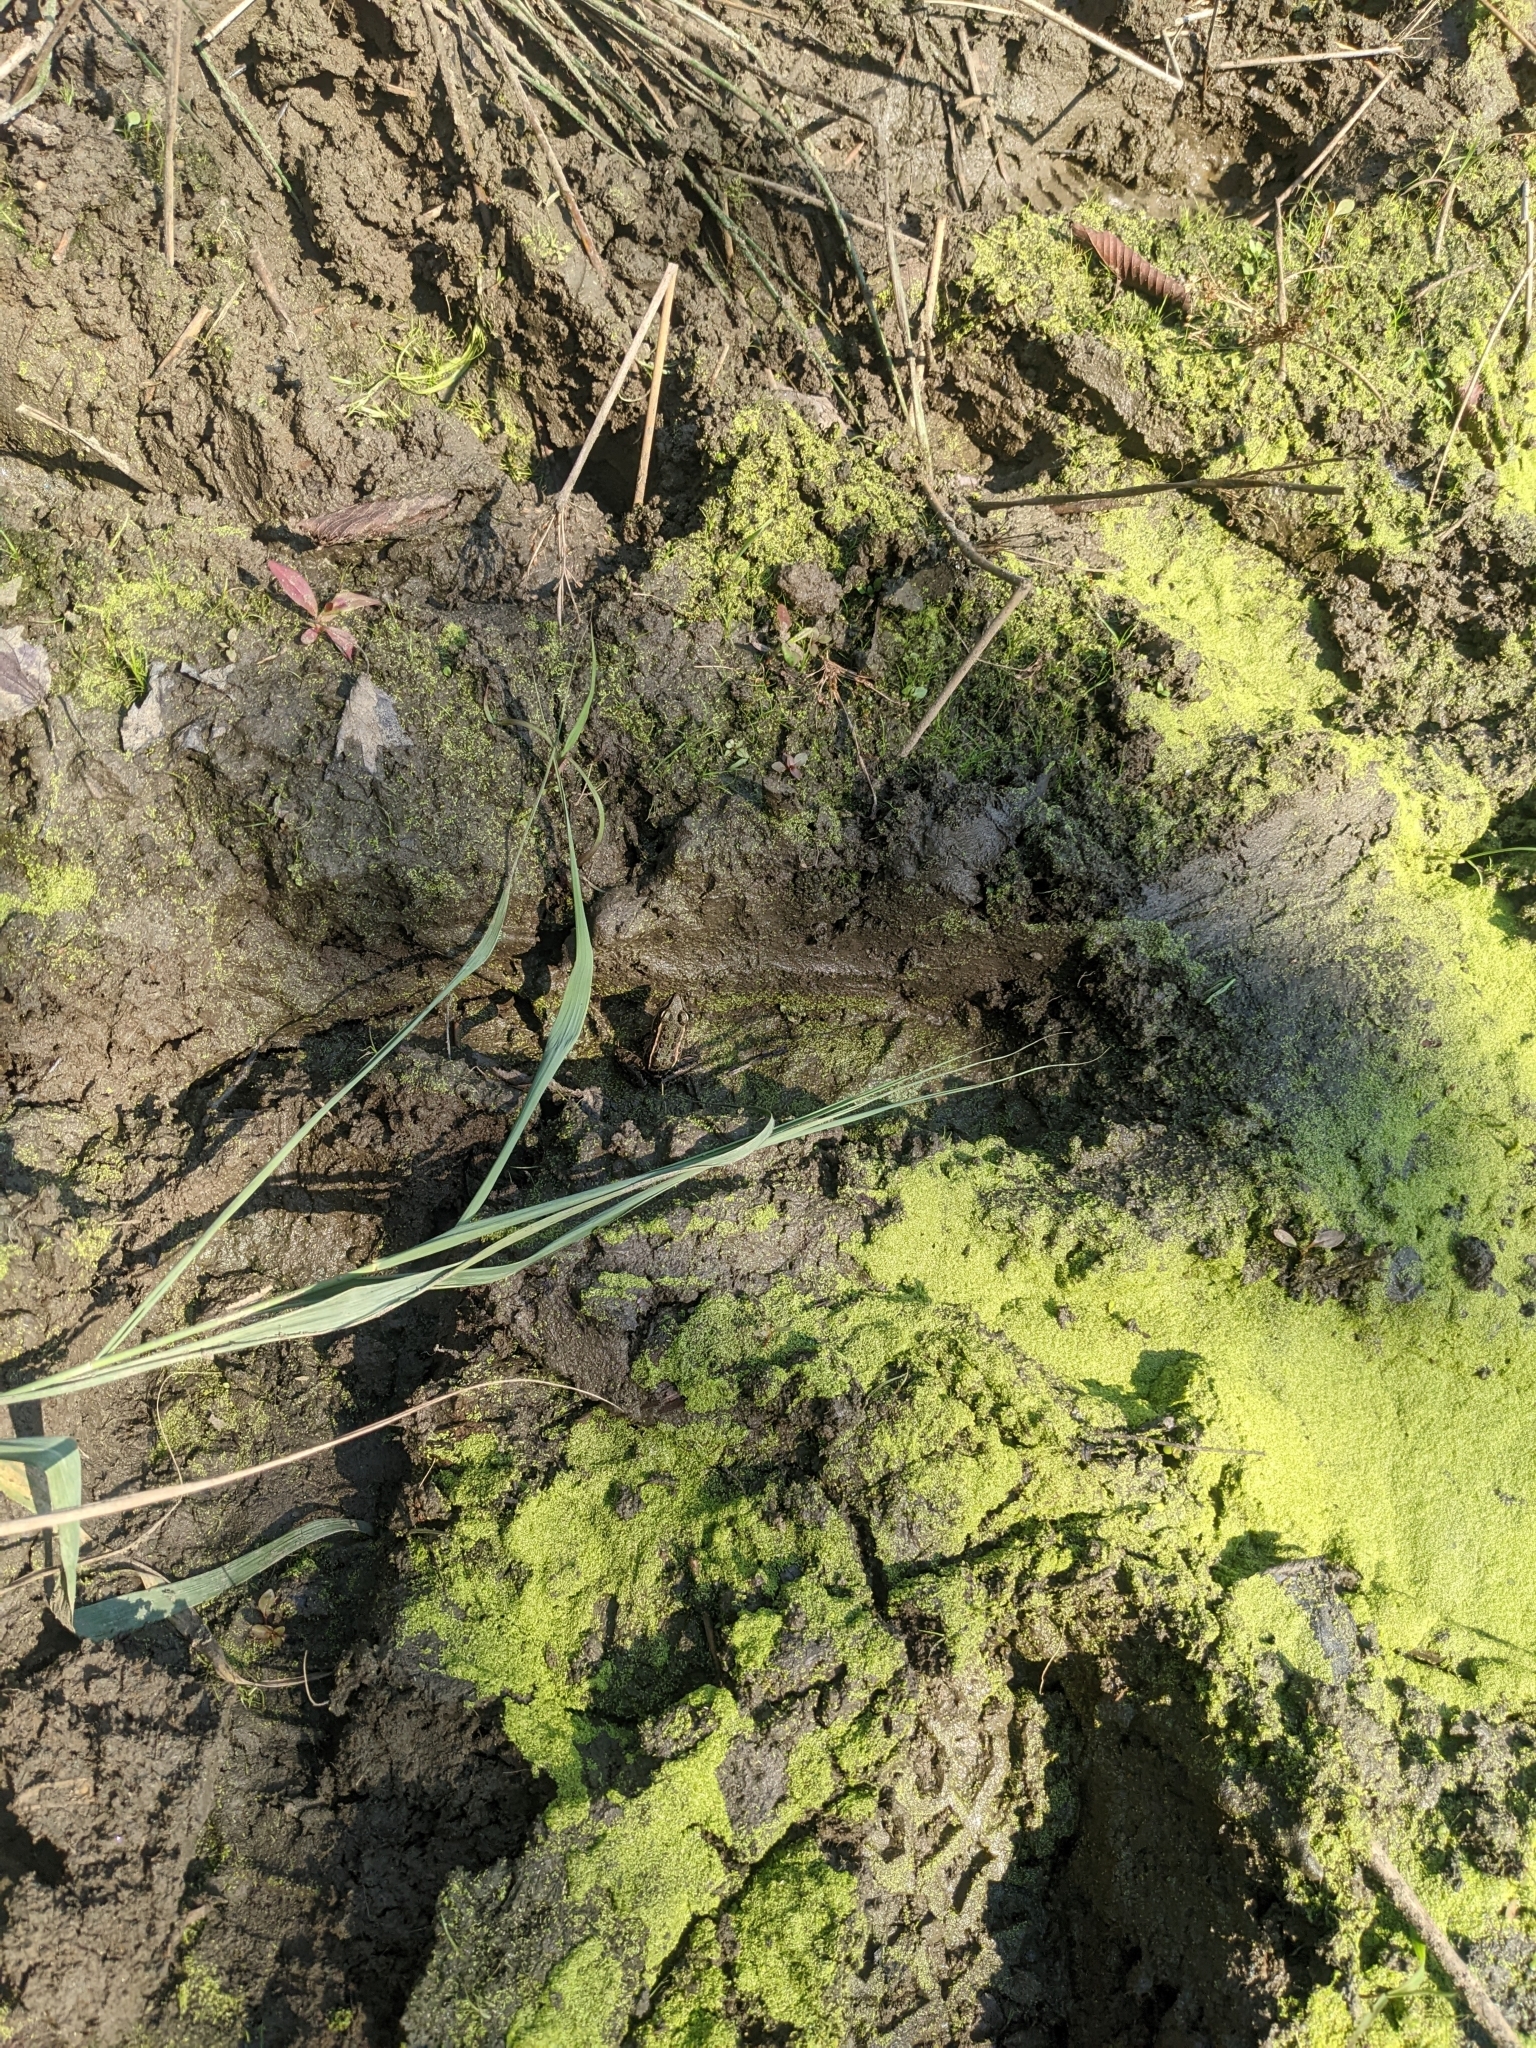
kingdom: Animalia
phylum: Chordata
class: Amphibia
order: Anura
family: Ranidae
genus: Lithobates
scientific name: Lithobates sphenocephalus
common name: Southern leopard frog
